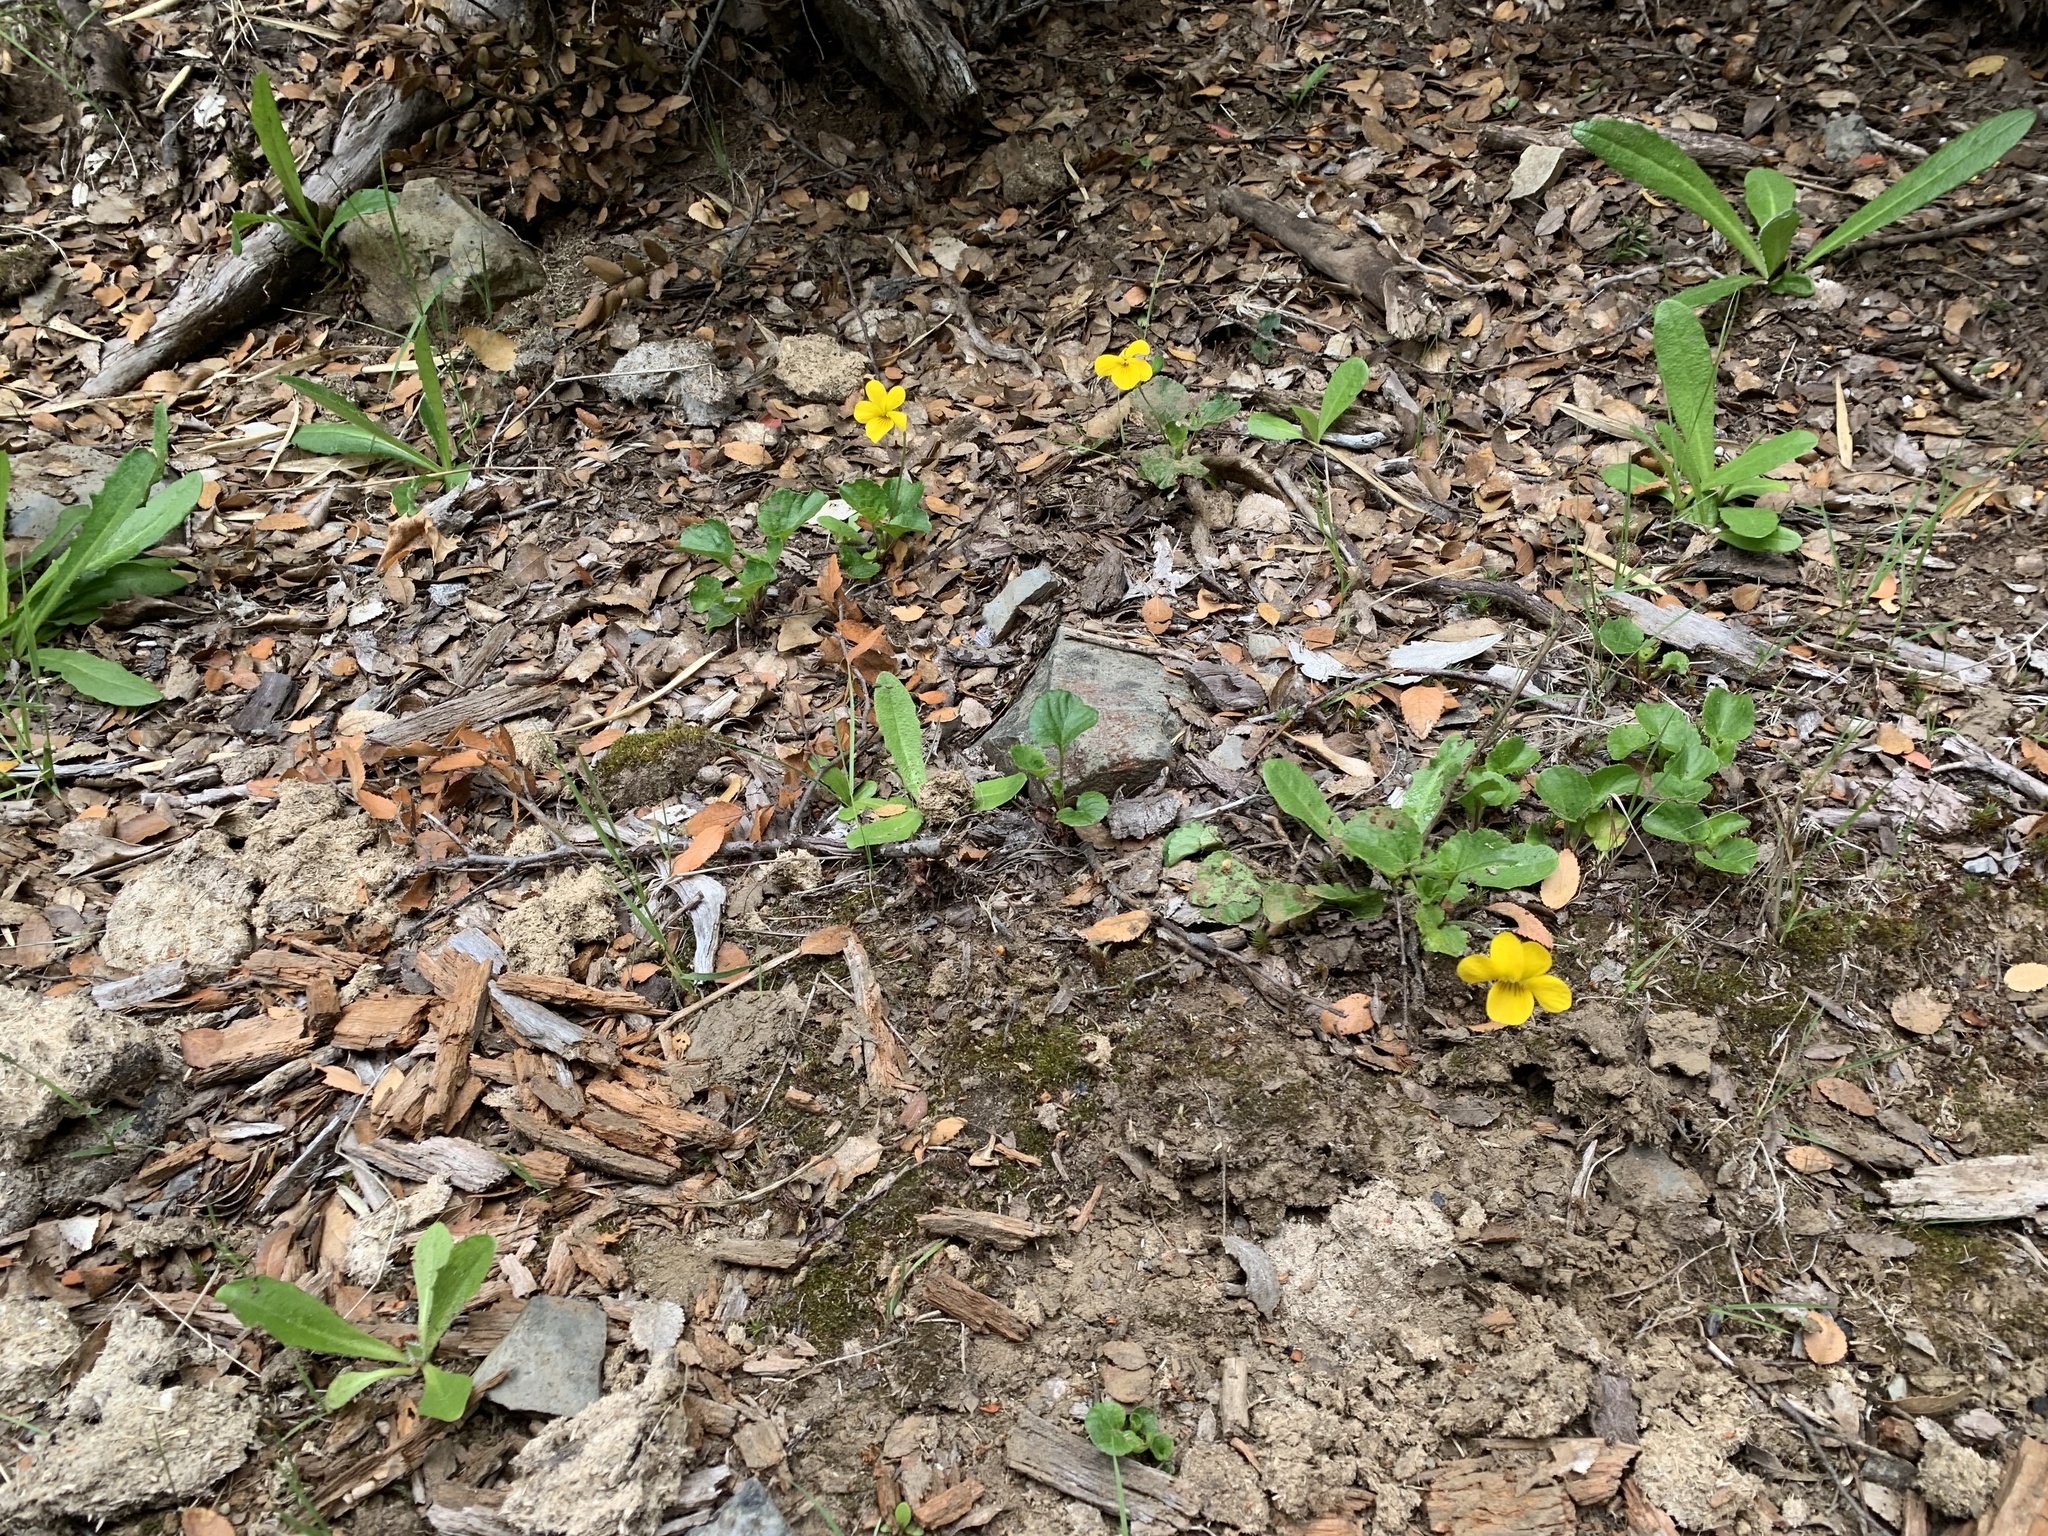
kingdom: Plantae
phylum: Tracheophyta
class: Magnoliopsida
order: Malpighiales
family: Violaceae
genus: Viola
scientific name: Viola reichei
